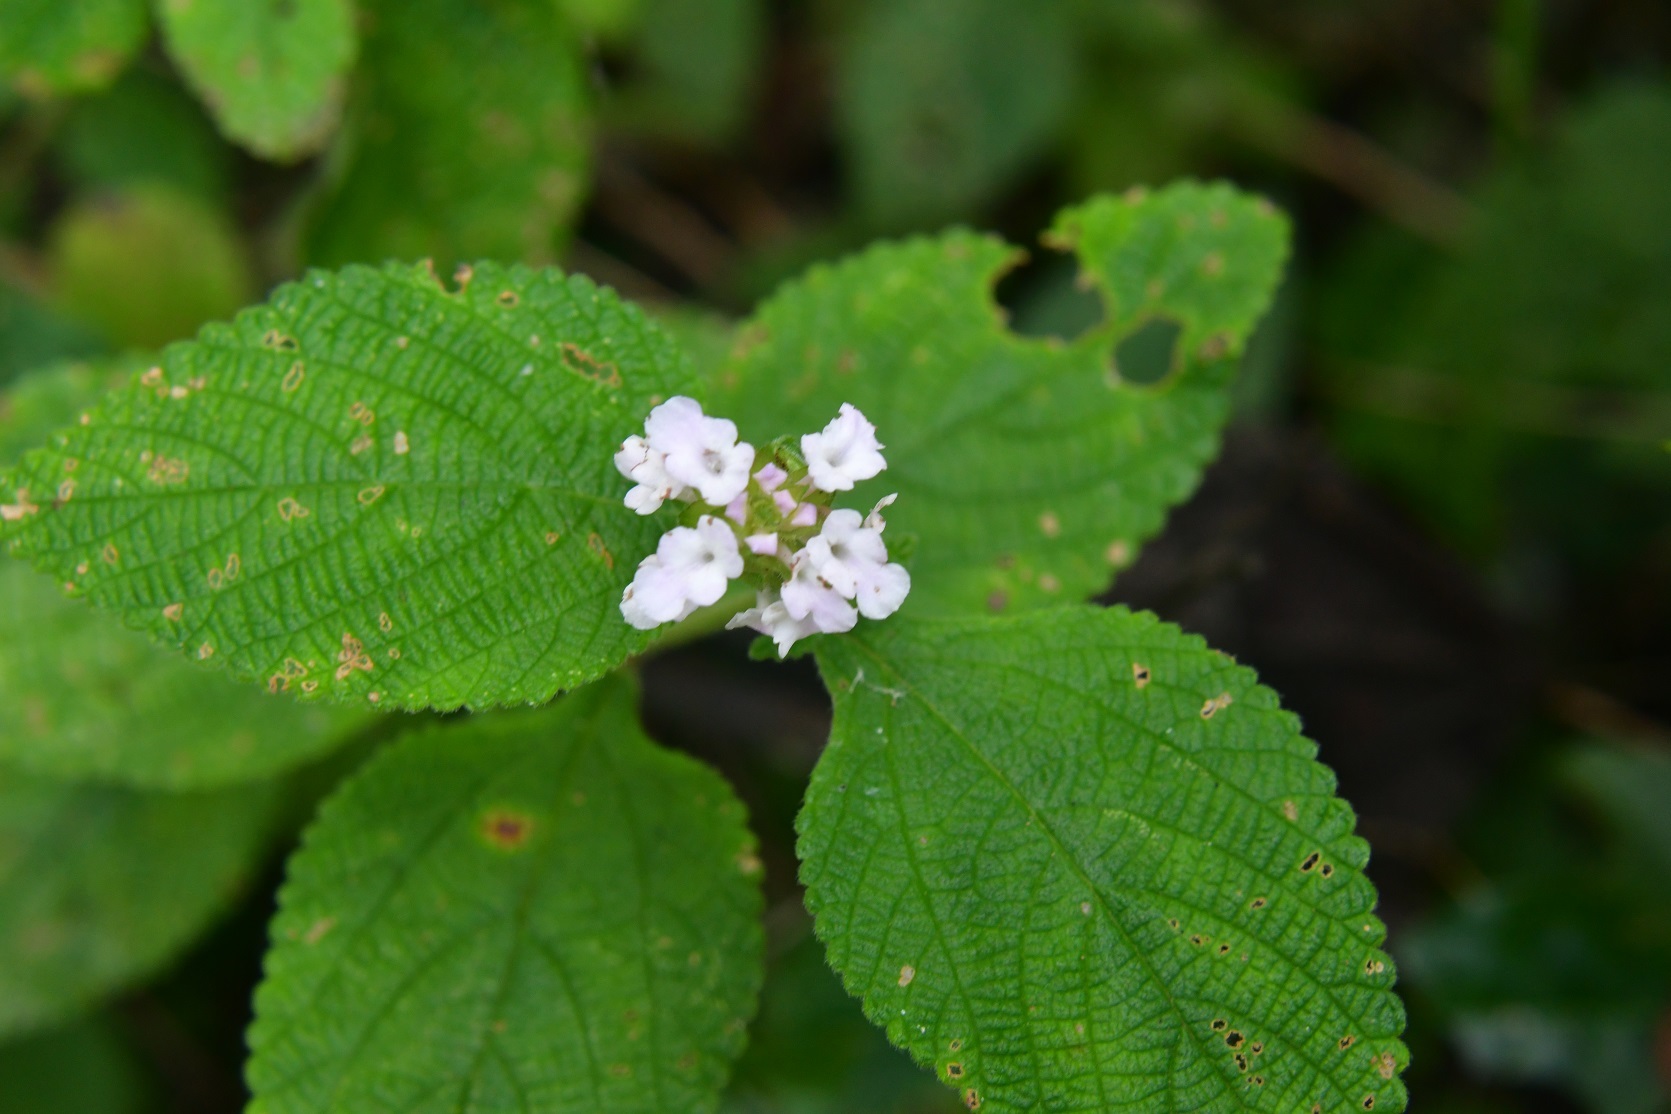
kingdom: Plantae
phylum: Tracheophyta
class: Magnoliopsida
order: Lamiales
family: Verbenaceae
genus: Lantana
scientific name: Lantana velutina
